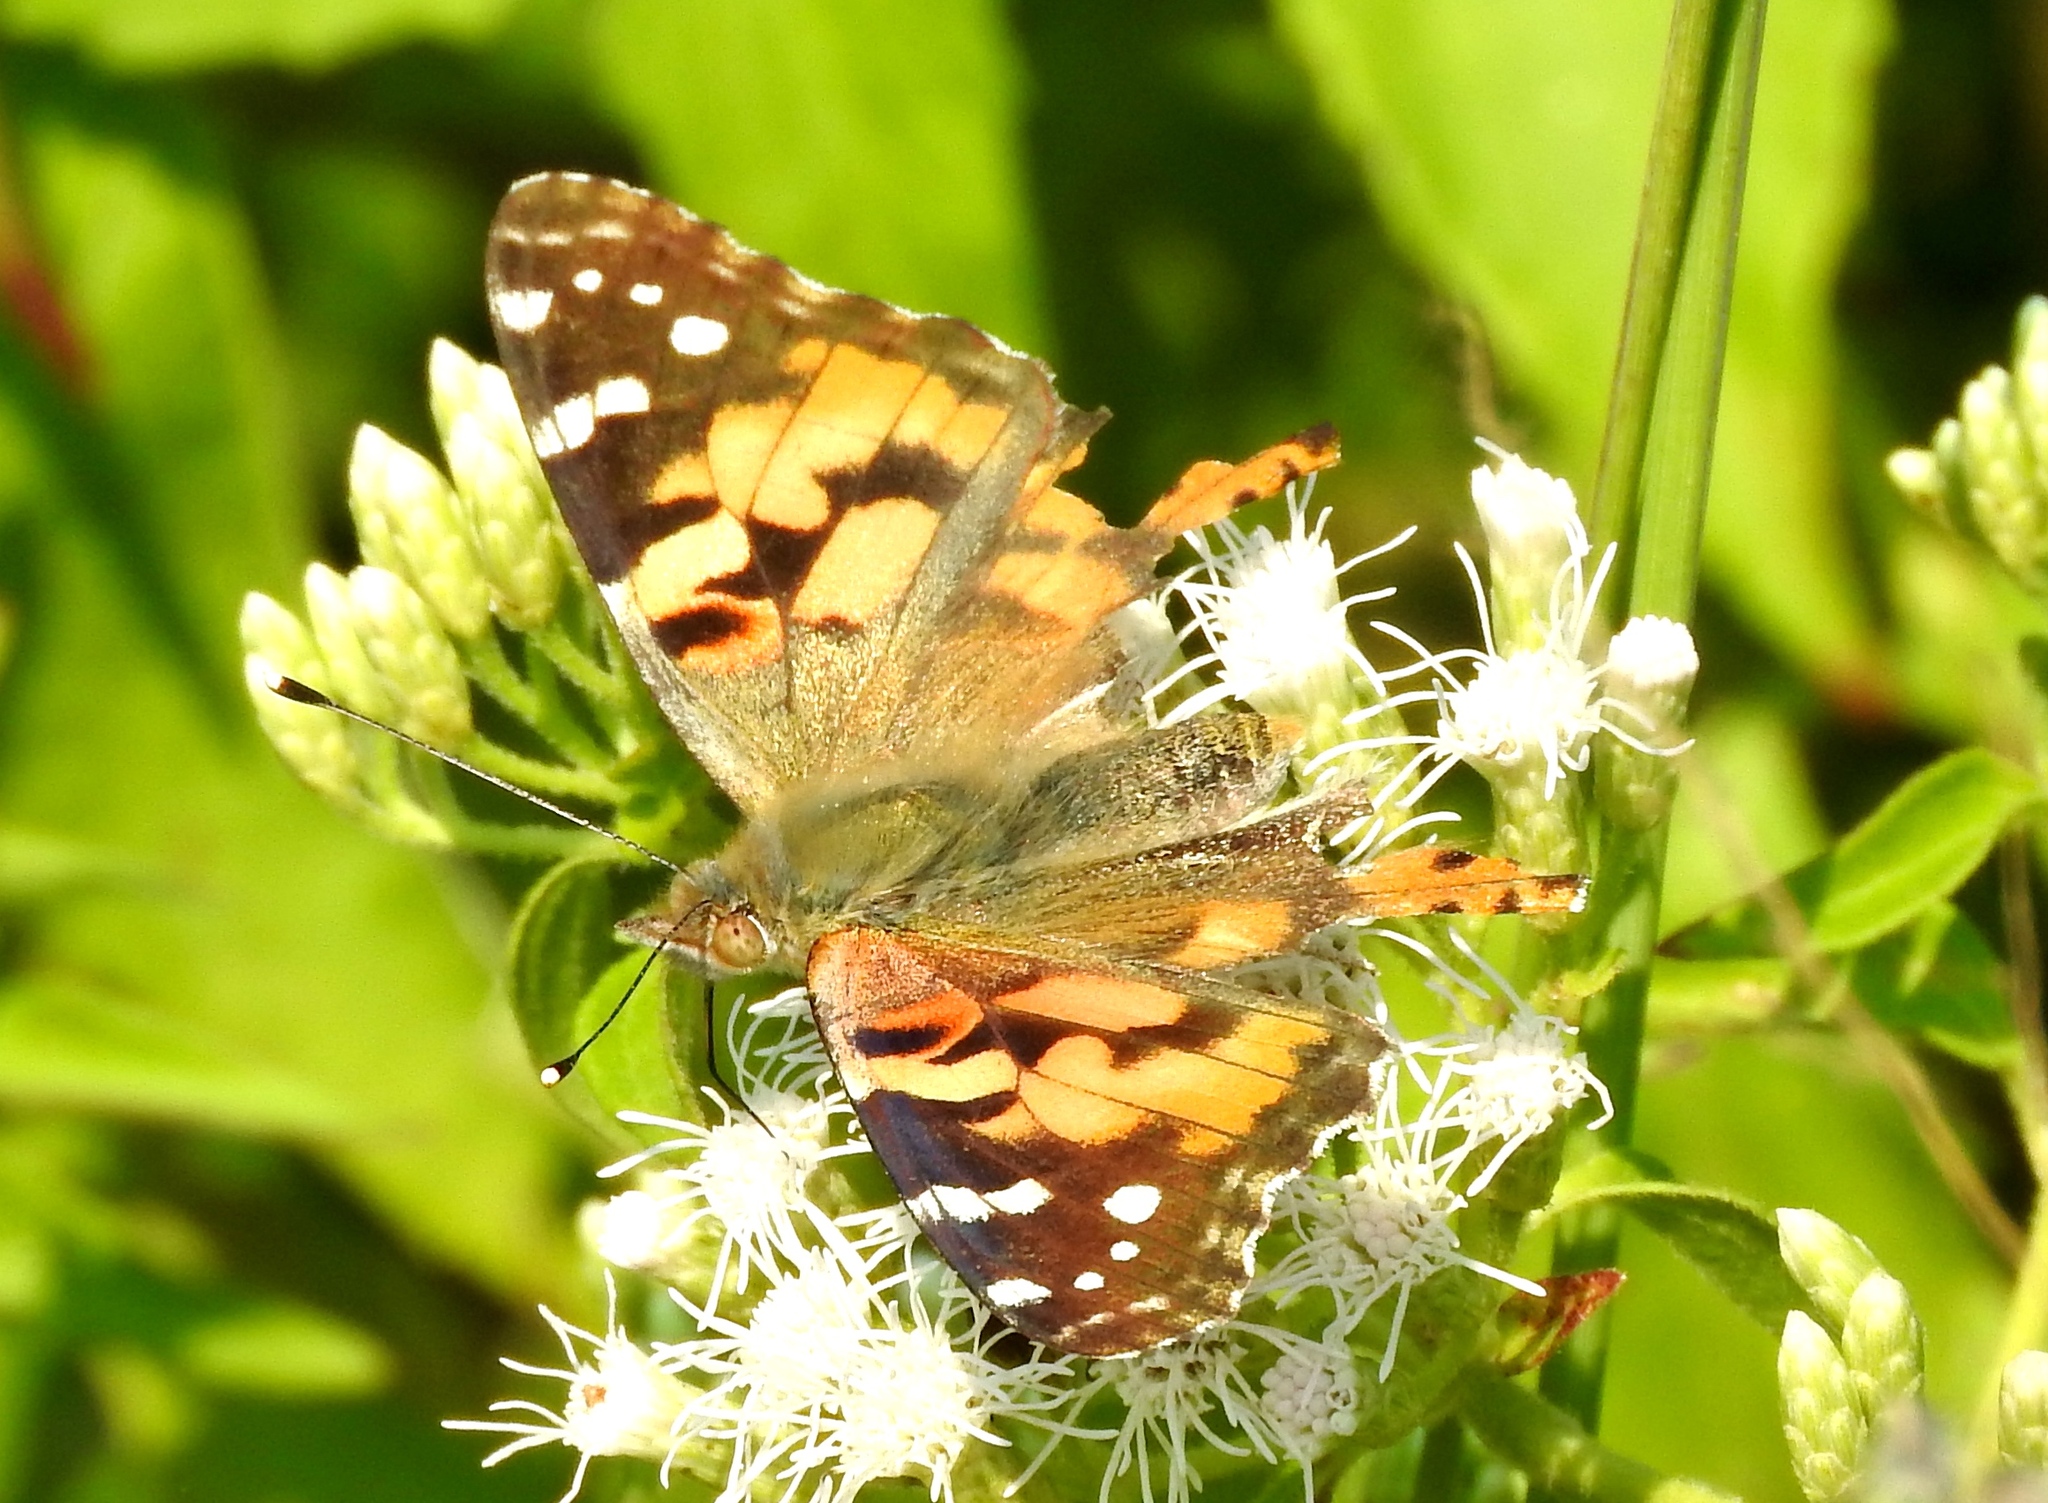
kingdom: Animalia
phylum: Arthropoda
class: Insecta
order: Lepidoptera
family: Nymphalidae
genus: Vanessa
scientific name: Vanessa cardui
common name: Painted lady
